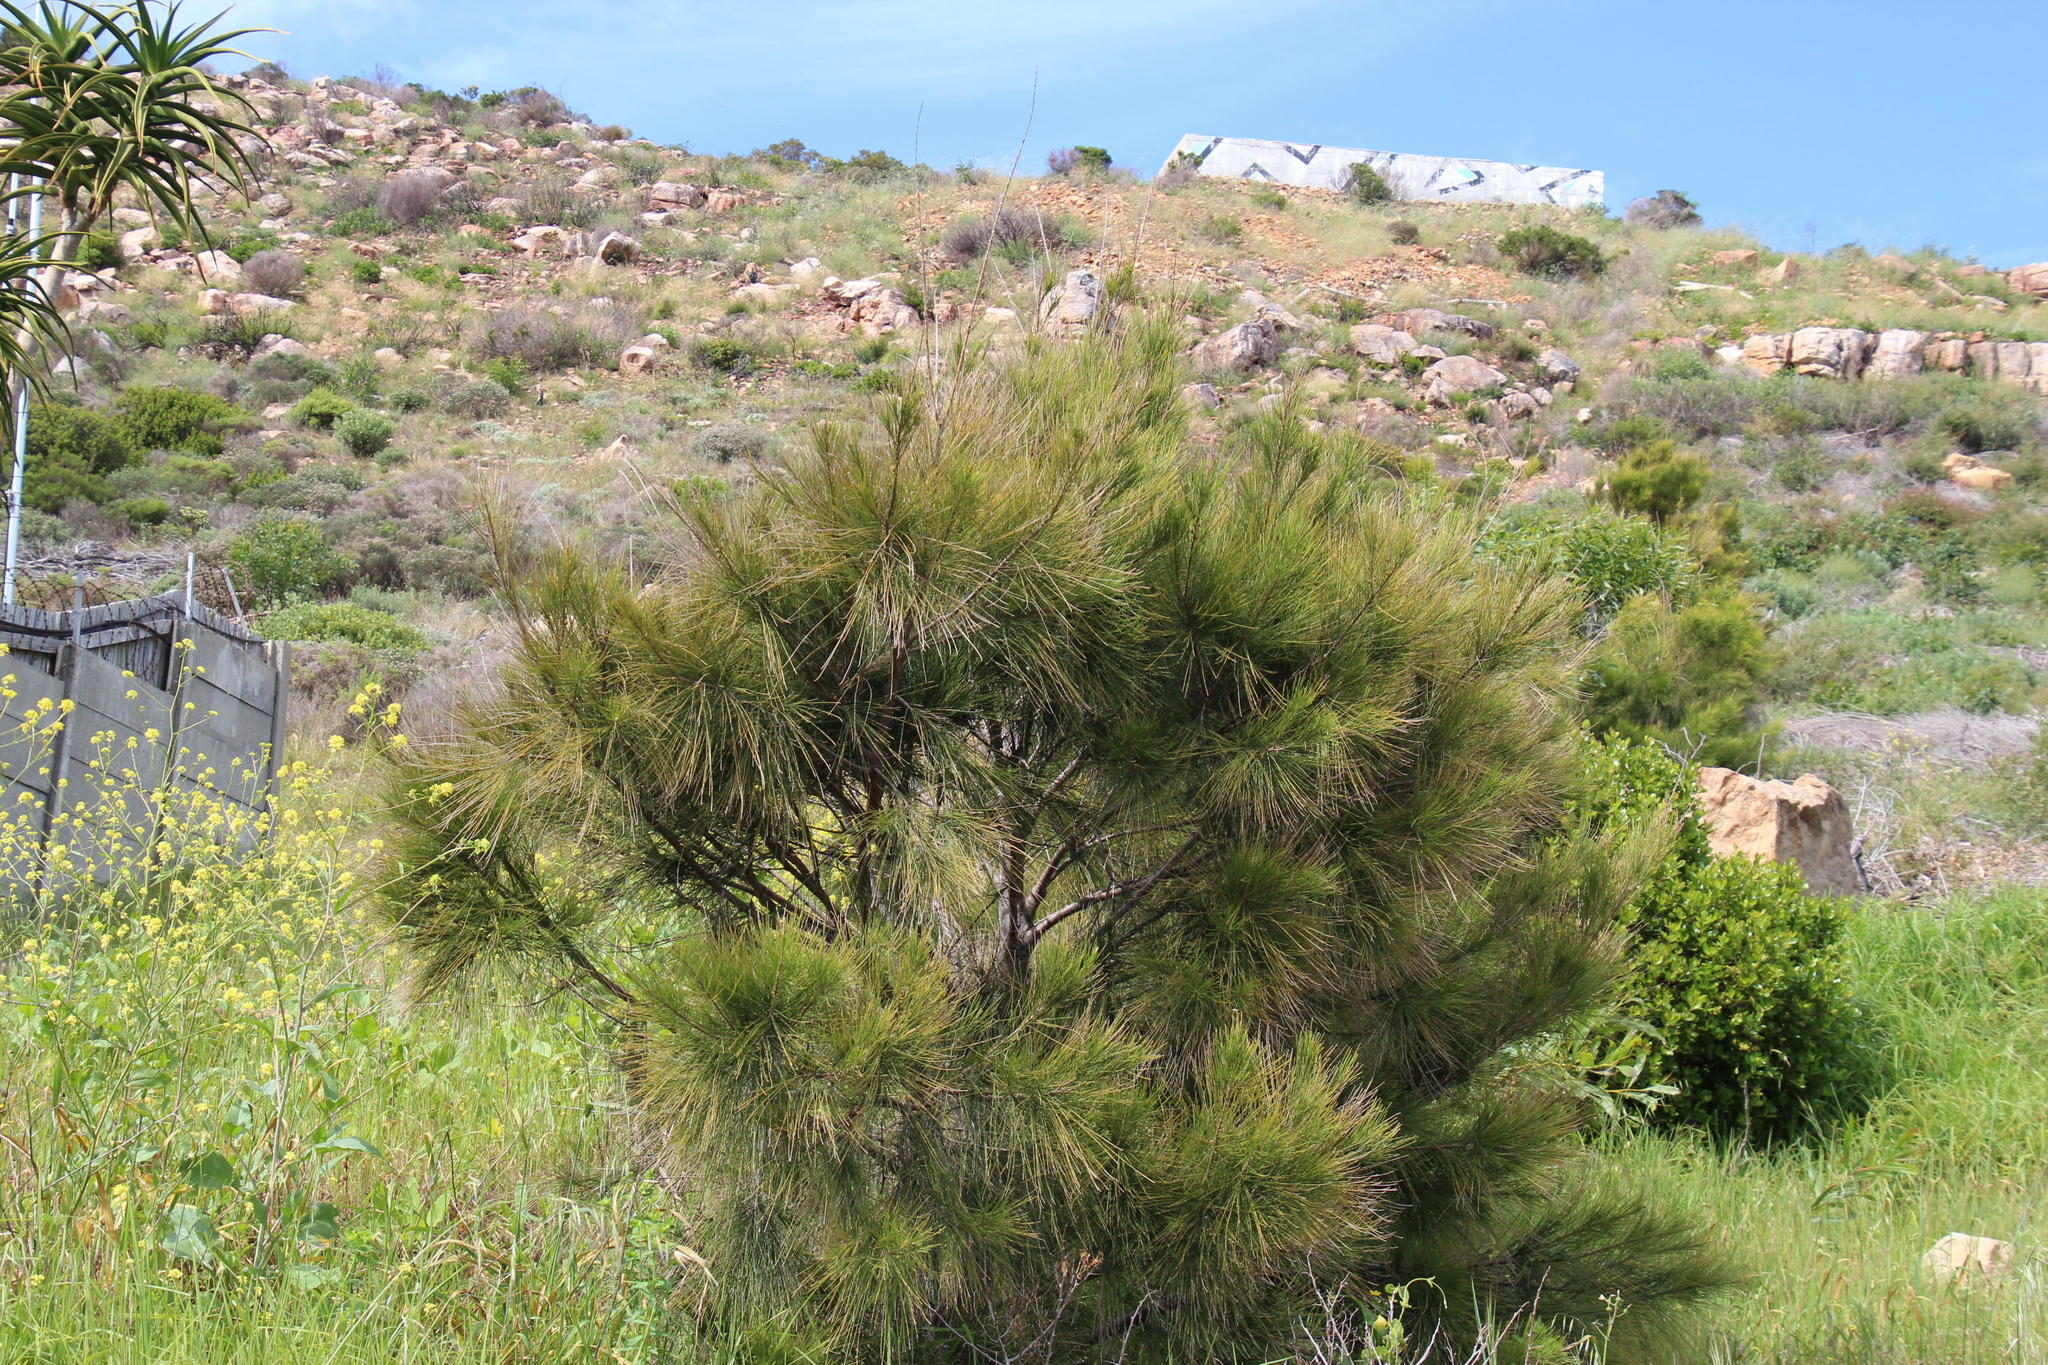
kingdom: Plantae
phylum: Tracheophyta
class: Magnoliopsida
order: Fagales
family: Casuarinaceae
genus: Casuarina
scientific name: Casuarina cunninghamiana
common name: River sheoak
